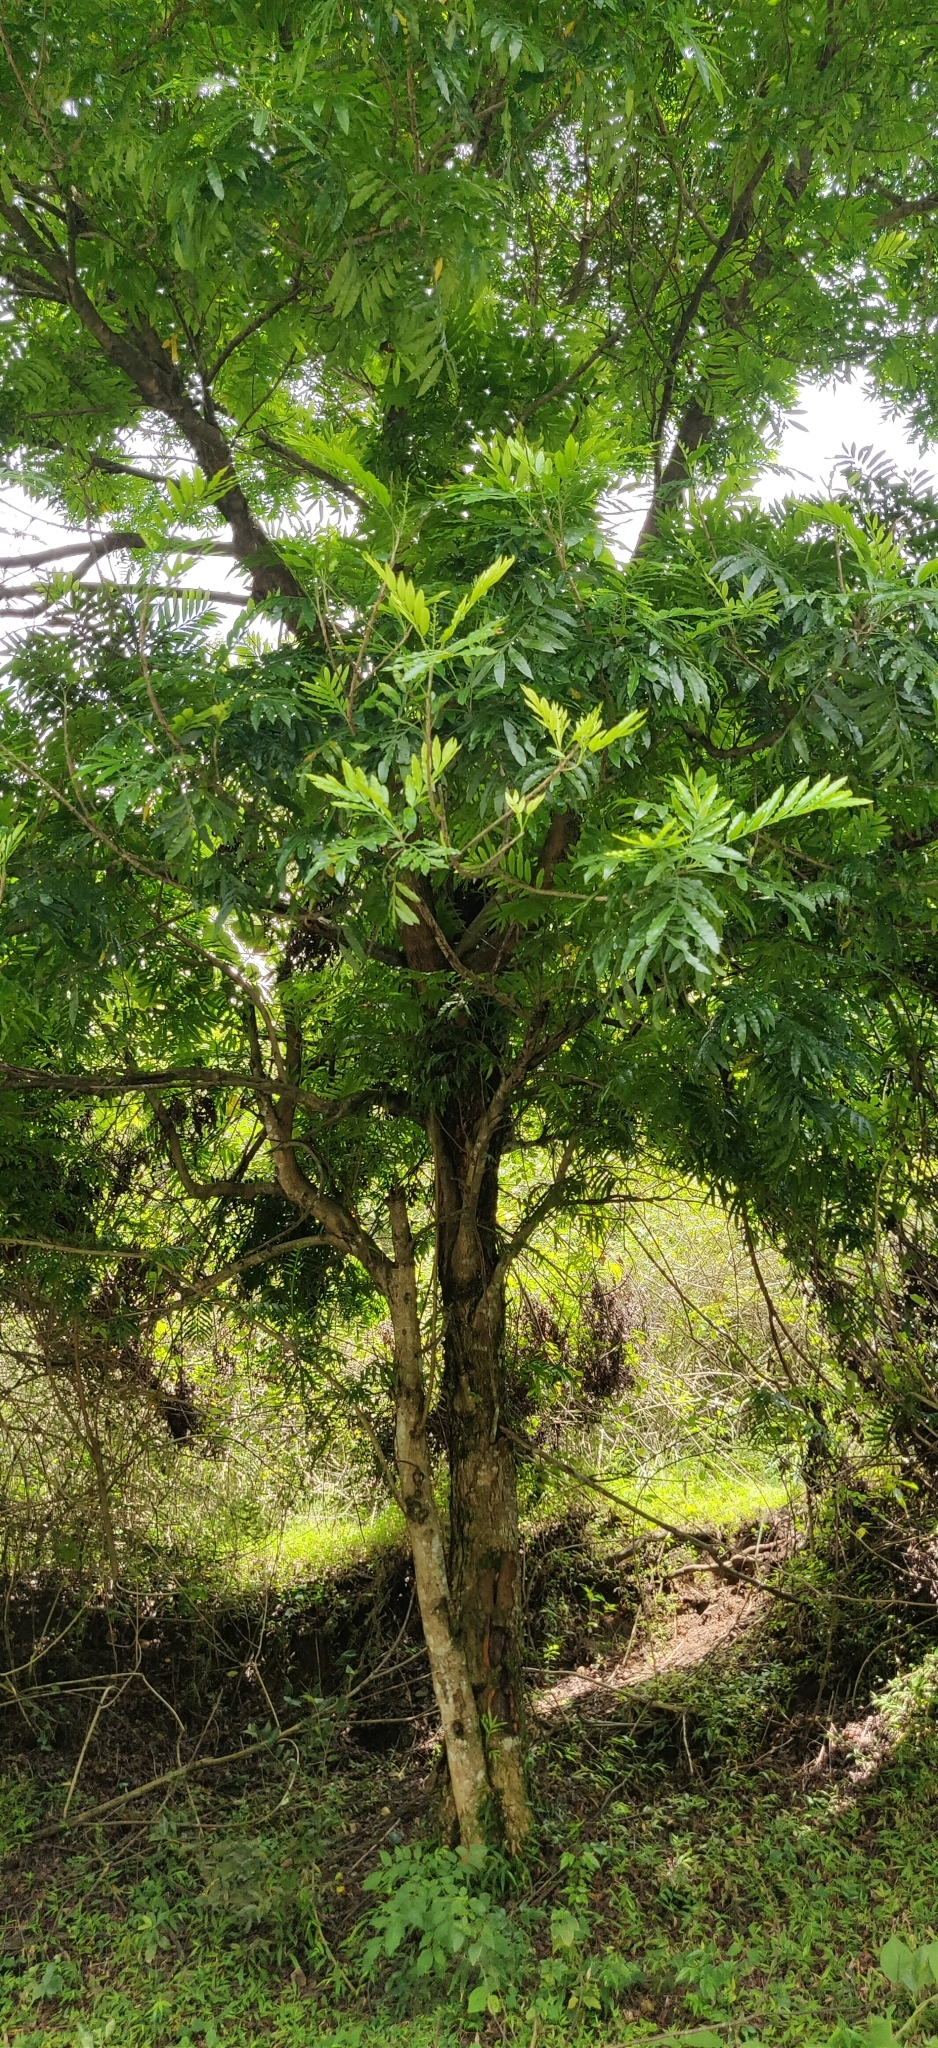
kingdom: Plantae
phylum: Tracheophyta
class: Magnoliopsida
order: Sapindales
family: Sapindaceae
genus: Filicium
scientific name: Filicium decipiens
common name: Ferntree
